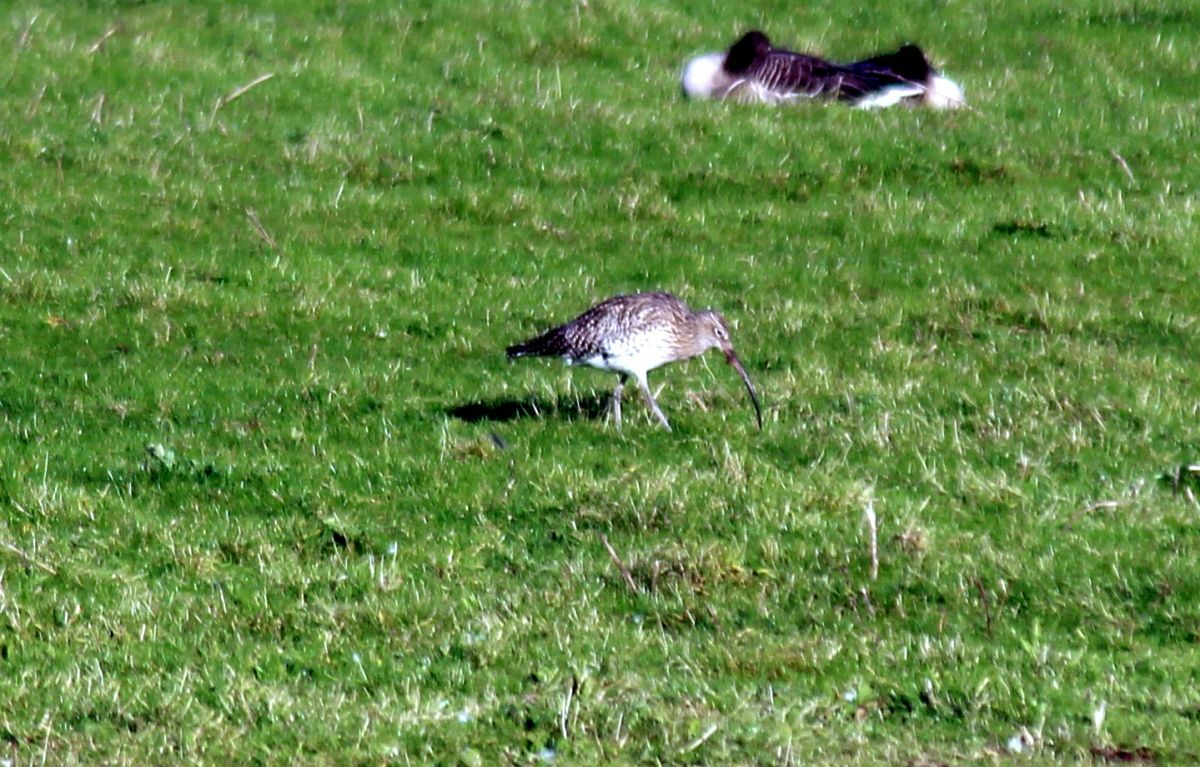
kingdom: Animalia
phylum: Chordata
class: Aves
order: Charadriiformes
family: Scolopacidae
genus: Numenius
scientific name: Numenius arquata
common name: Eurasian curlew
